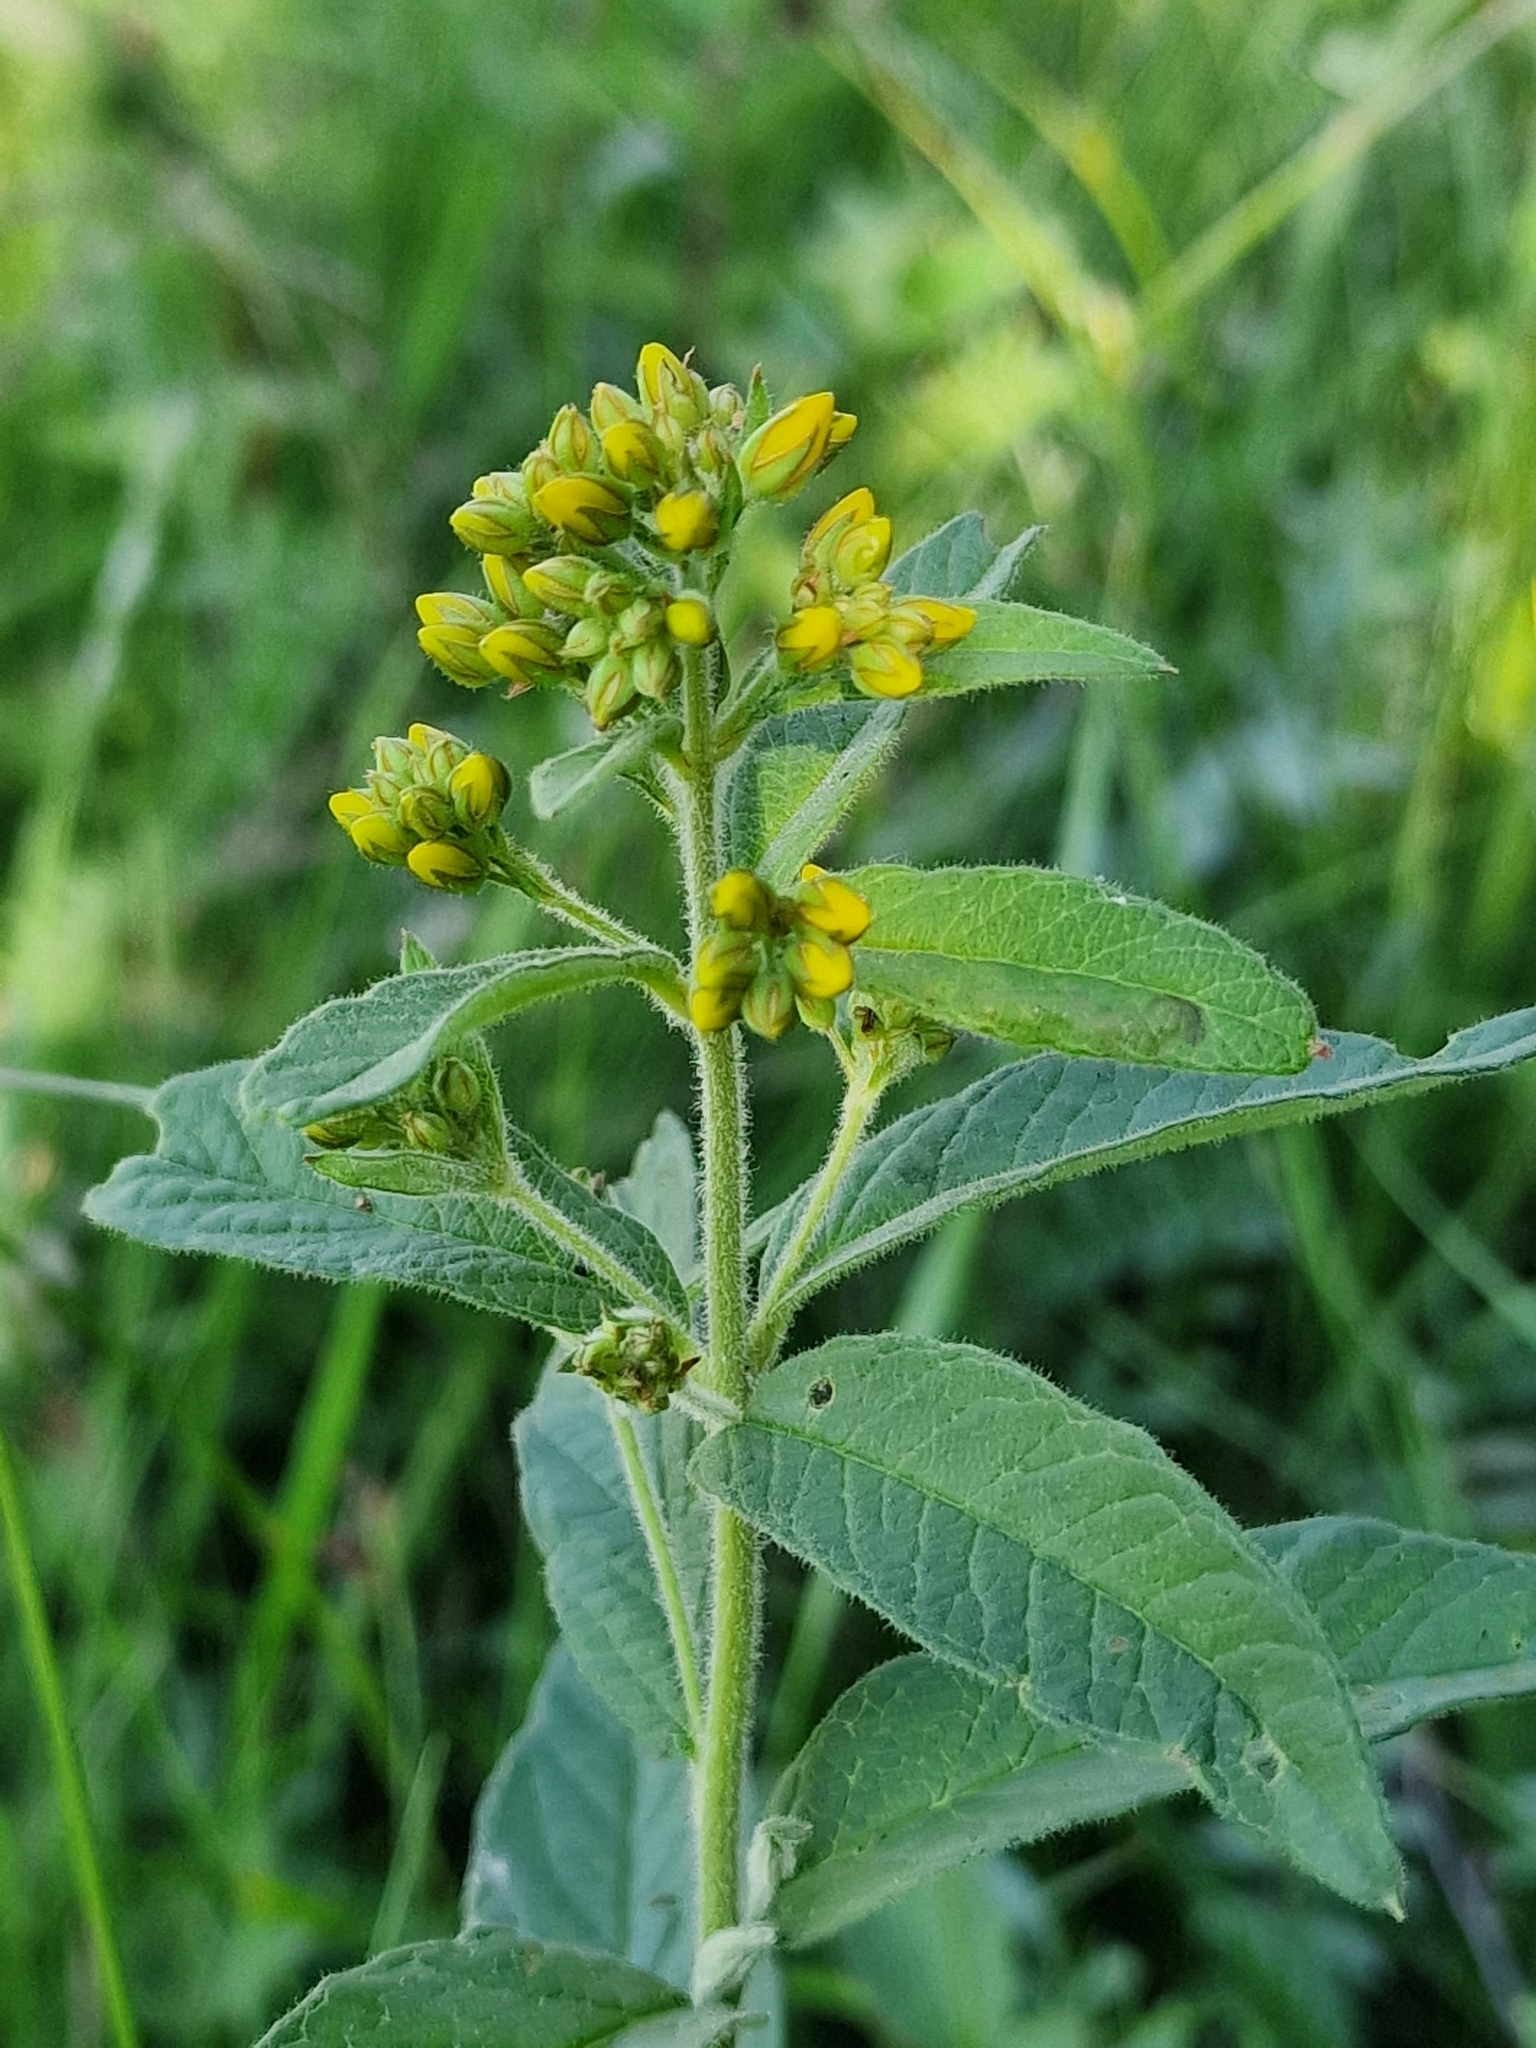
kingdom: Plantae
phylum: Tracheophyta
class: Magnoliopsida
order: Ericales
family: Primulaceae
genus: Lysimachia
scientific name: Lysimachia vulgaris
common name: Yellow loosestrife
